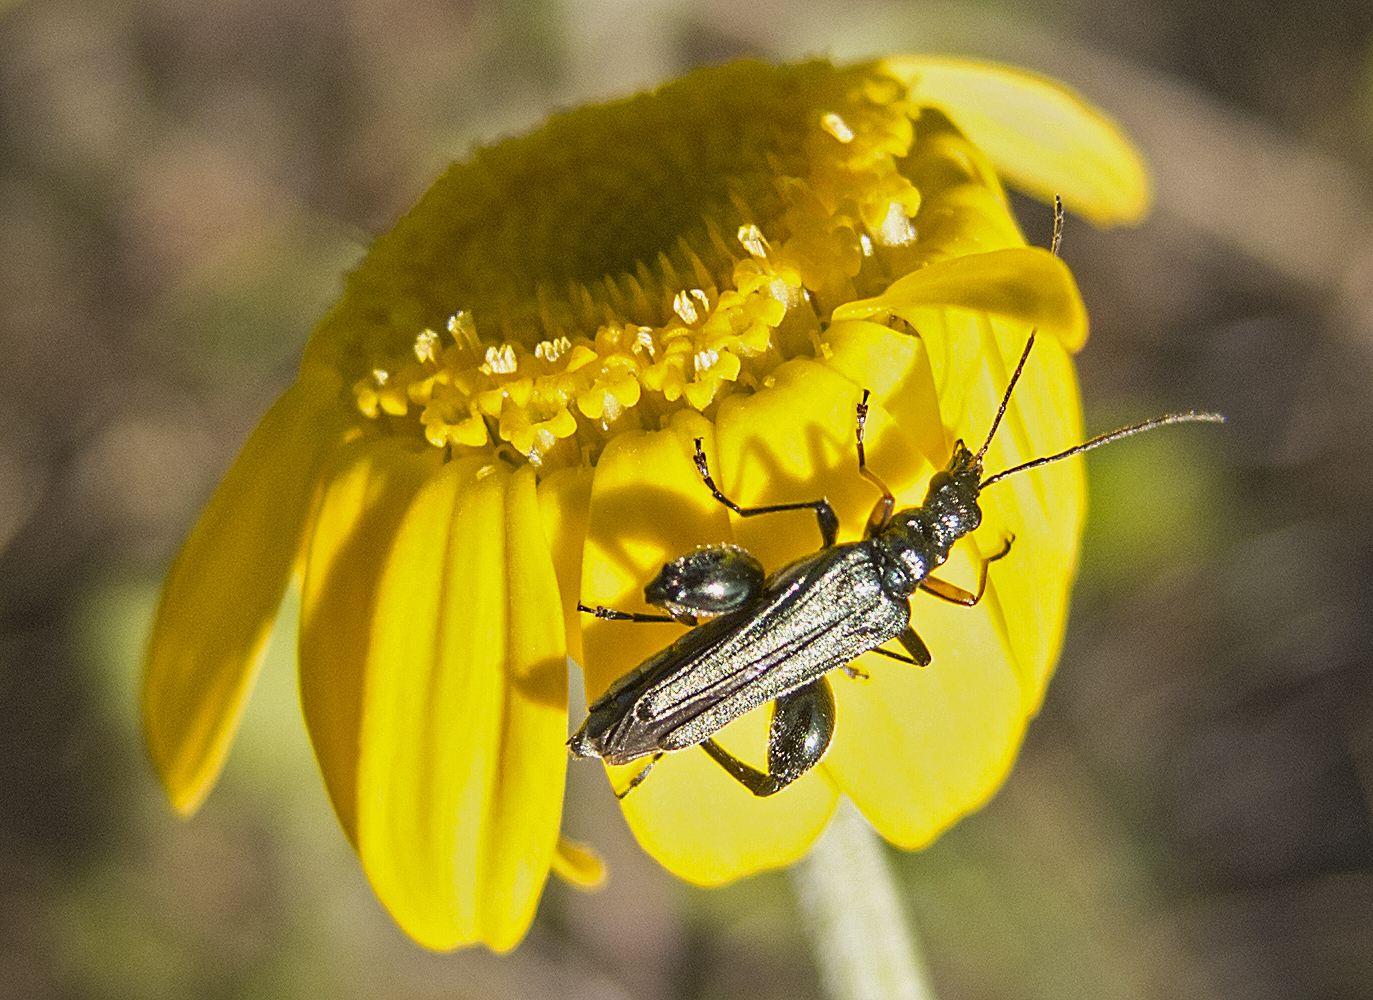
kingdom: Animalia
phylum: Arthropoda
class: Insecta
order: Coleoptera
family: Oedemeridae
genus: Oedemera
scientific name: Oedemera flavipes
